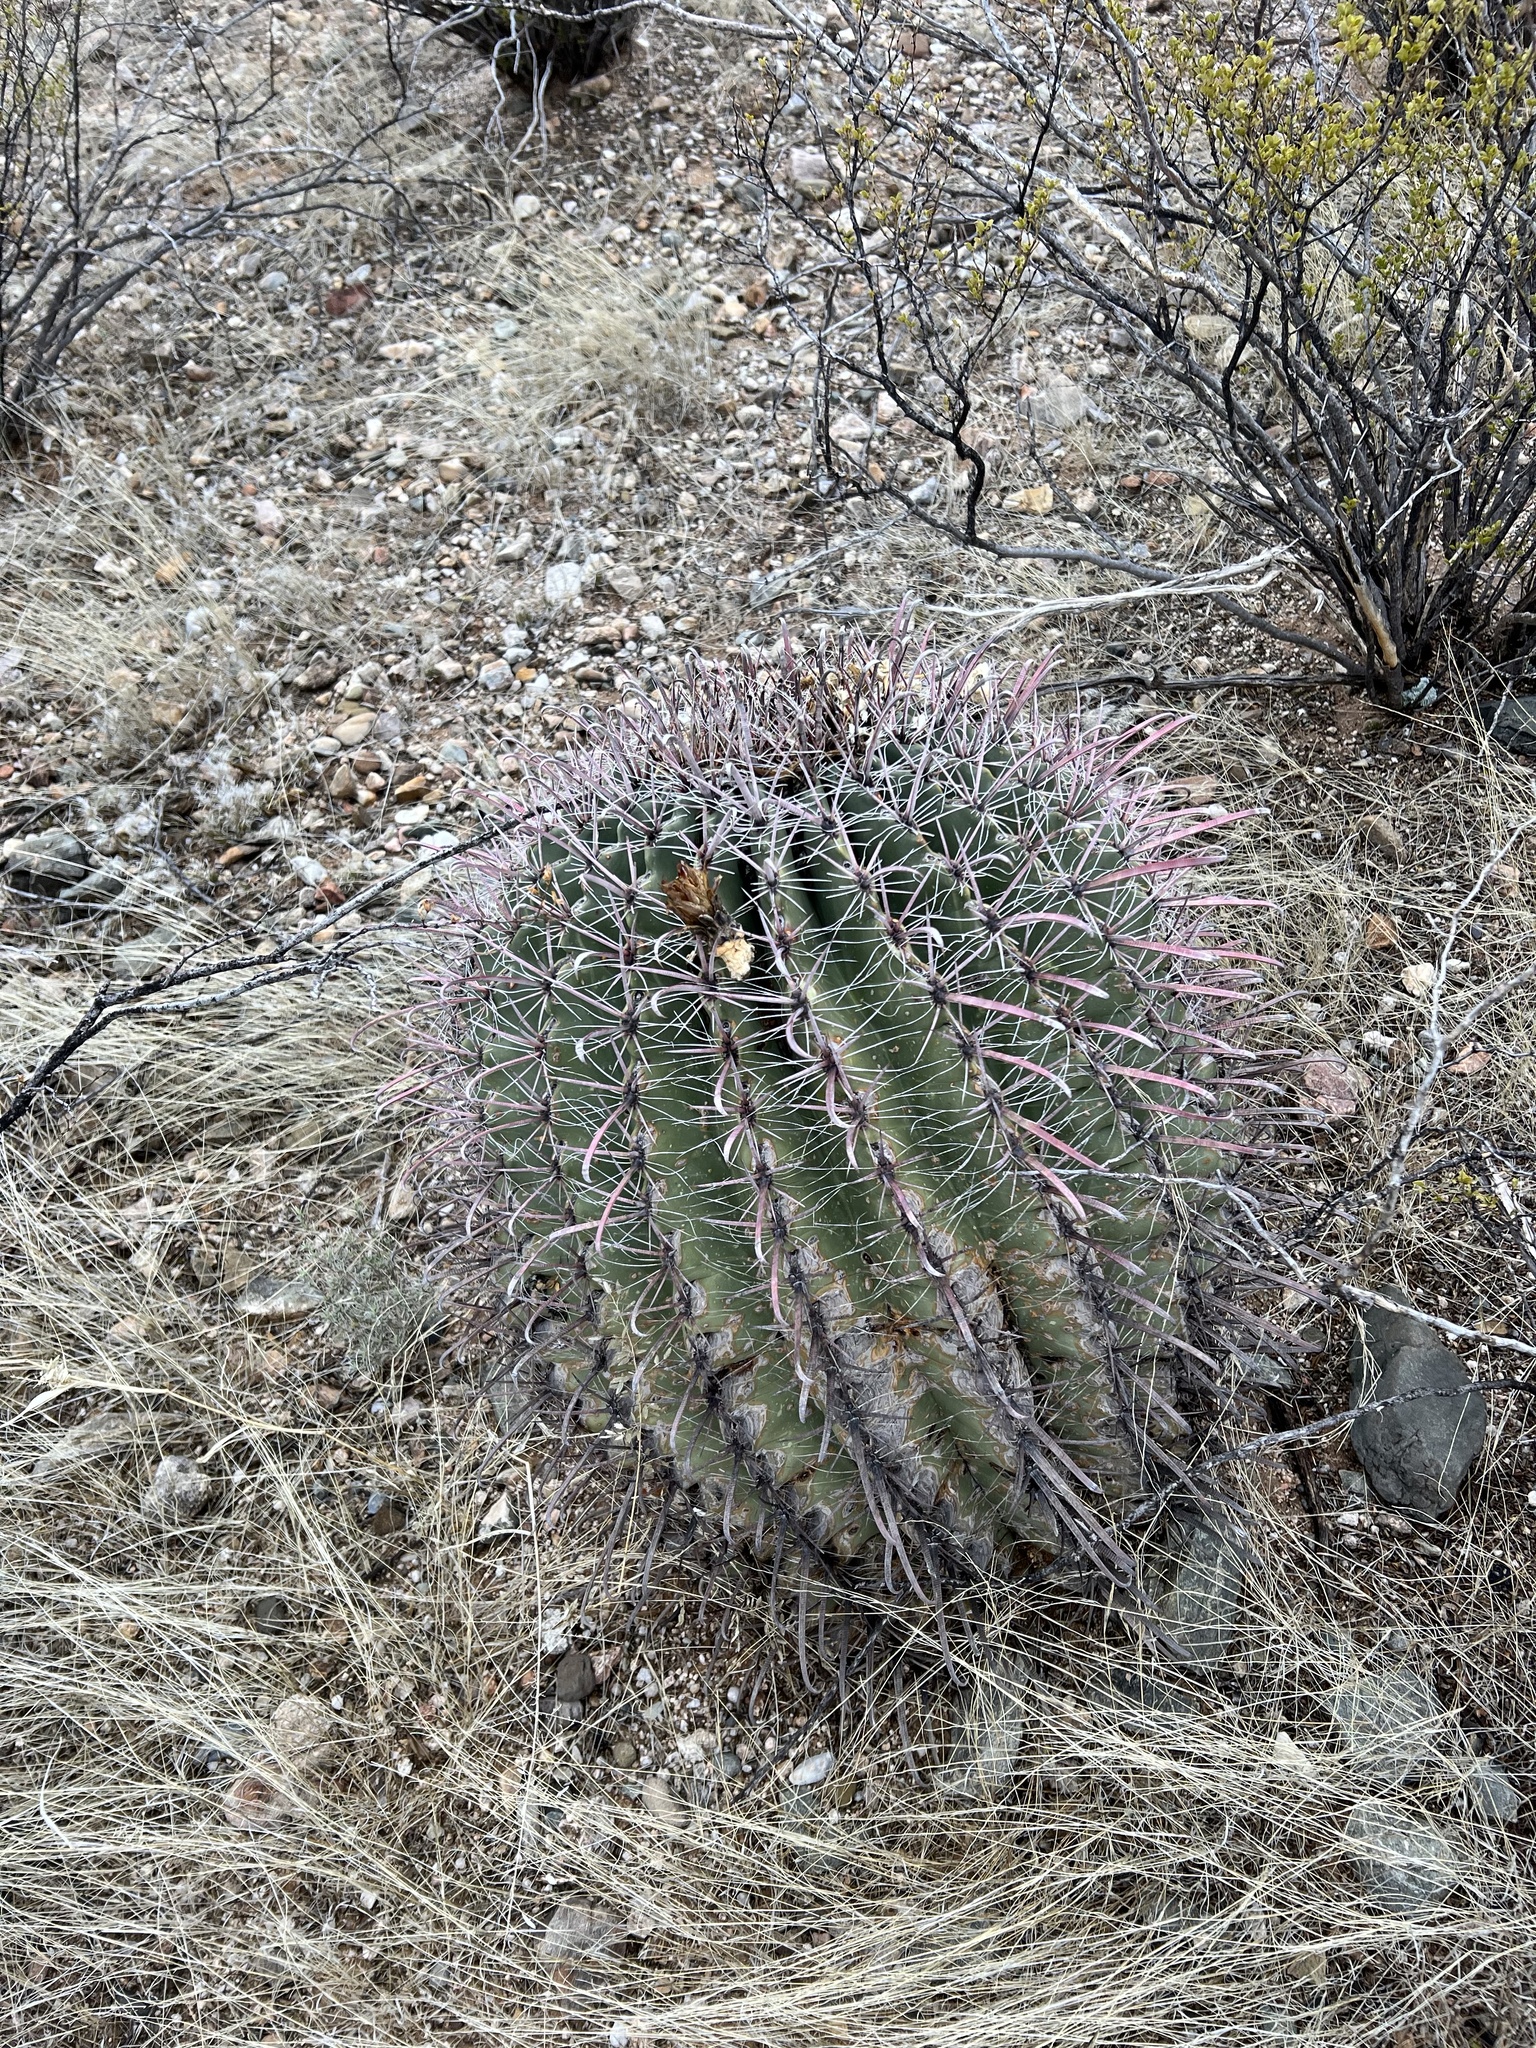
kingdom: Plantae
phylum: Tracheophyta
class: Magnoliopsida
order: Caryophyllales
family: Cactaceae
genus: Ferocactus
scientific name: Ferocactus wislizeni
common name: Candy barrel cactus
